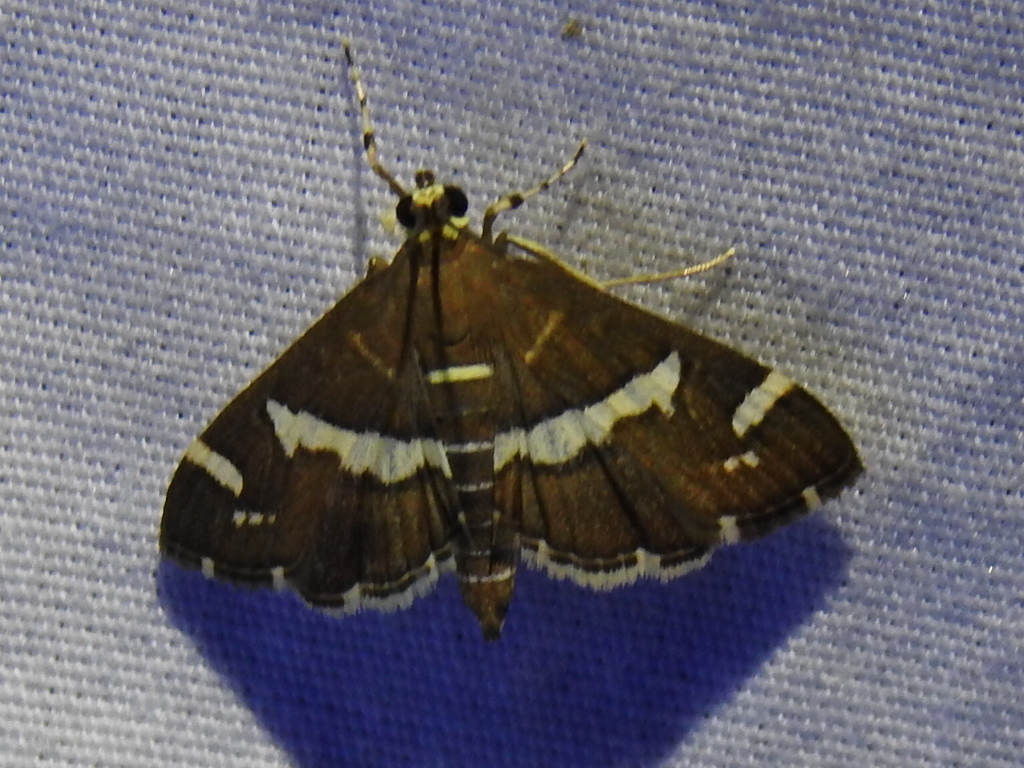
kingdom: Animalia
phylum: Arthropoda
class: Insecta
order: Lepidoptera
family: Crambidae
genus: Spoladea
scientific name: Spoladea recurvalis
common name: Beet webworm moth
